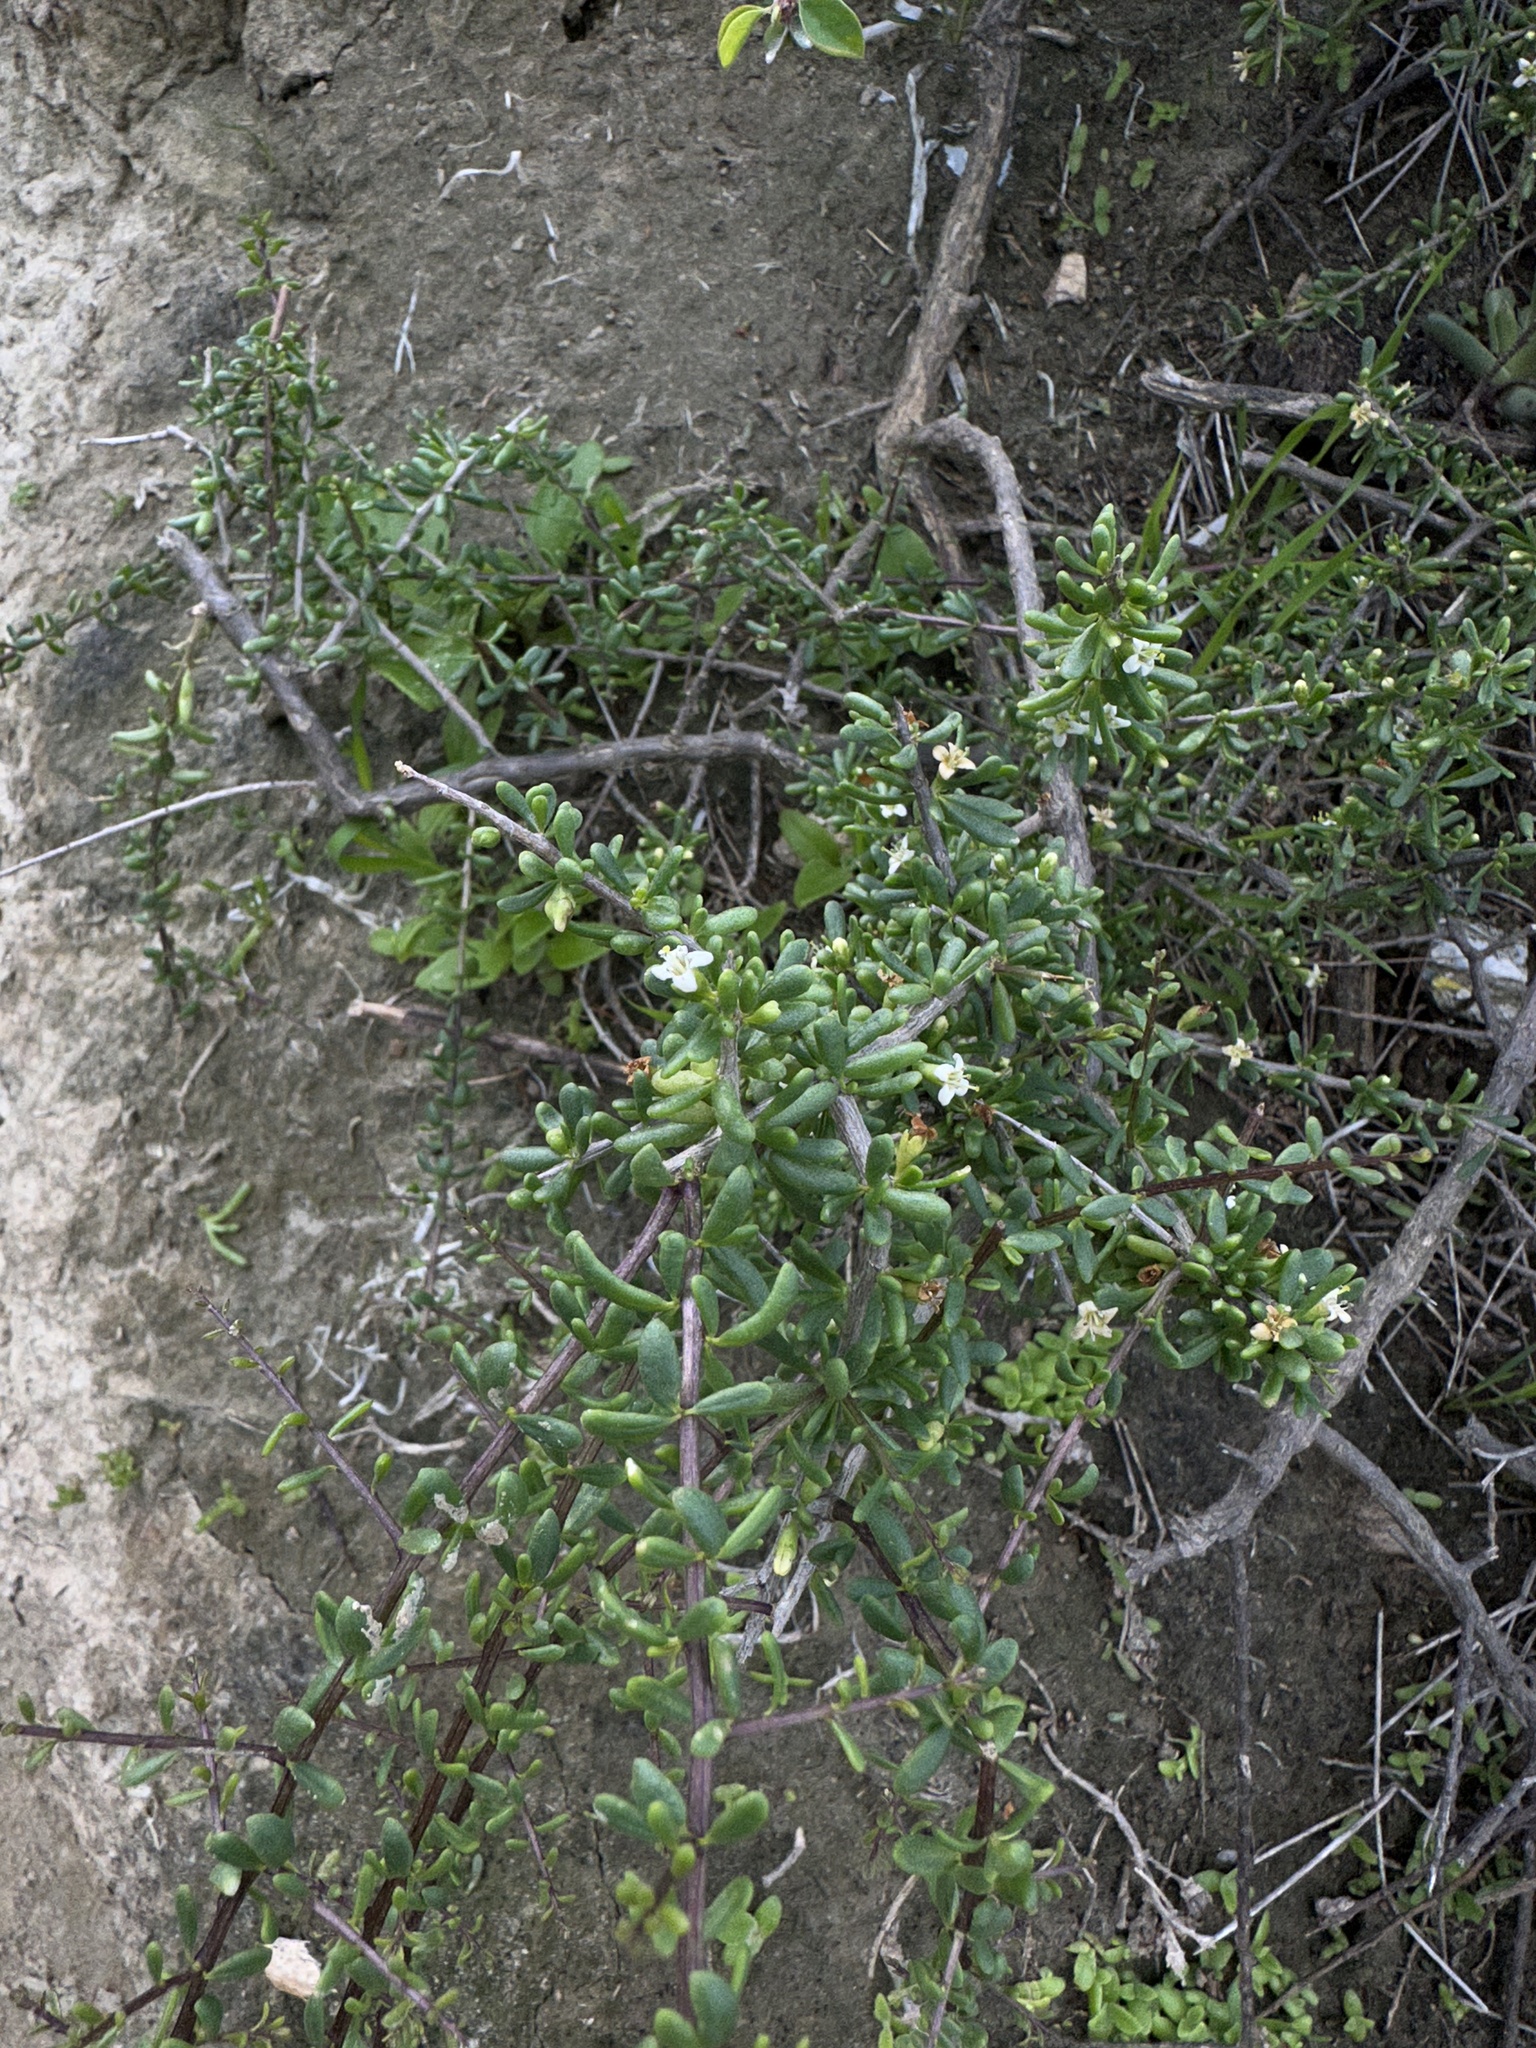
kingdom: Plantae
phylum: Tracheophyta
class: Magnoliopsida
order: Solanales
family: Solanaceae
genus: Lycium
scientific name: Lycium californicum
